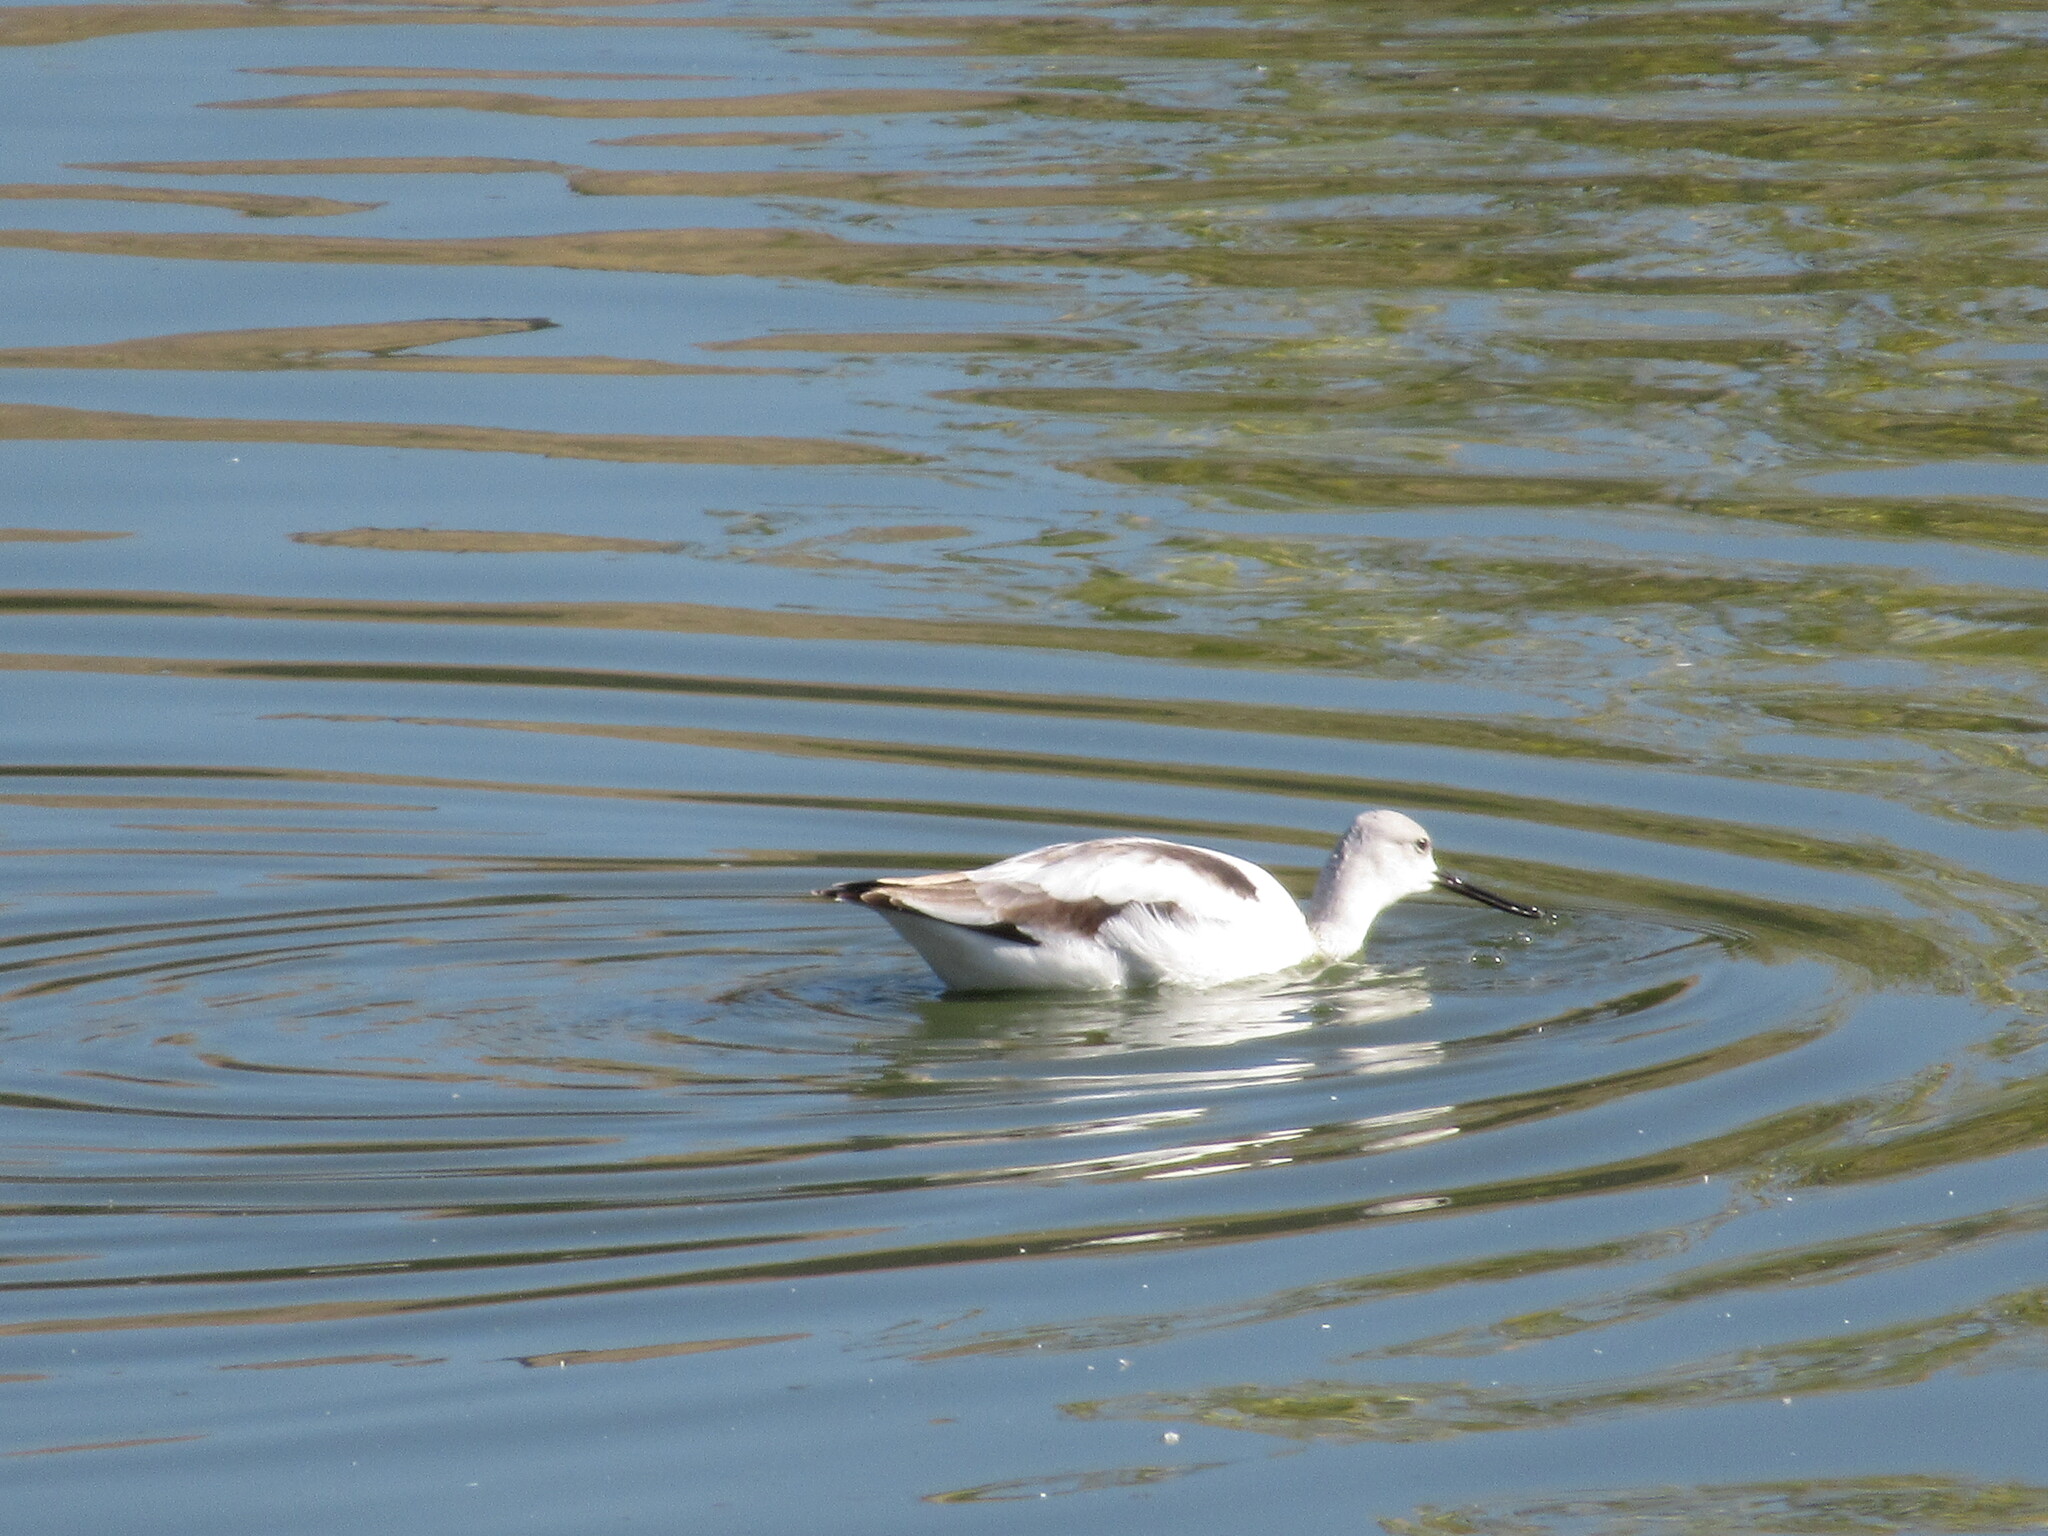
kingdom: Animalia
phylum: Chordata
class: Aves
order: Charadriiformes
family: Recurvirostridae
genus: Recurvirostra
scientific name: Recurvirostra americana
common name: American avocet
